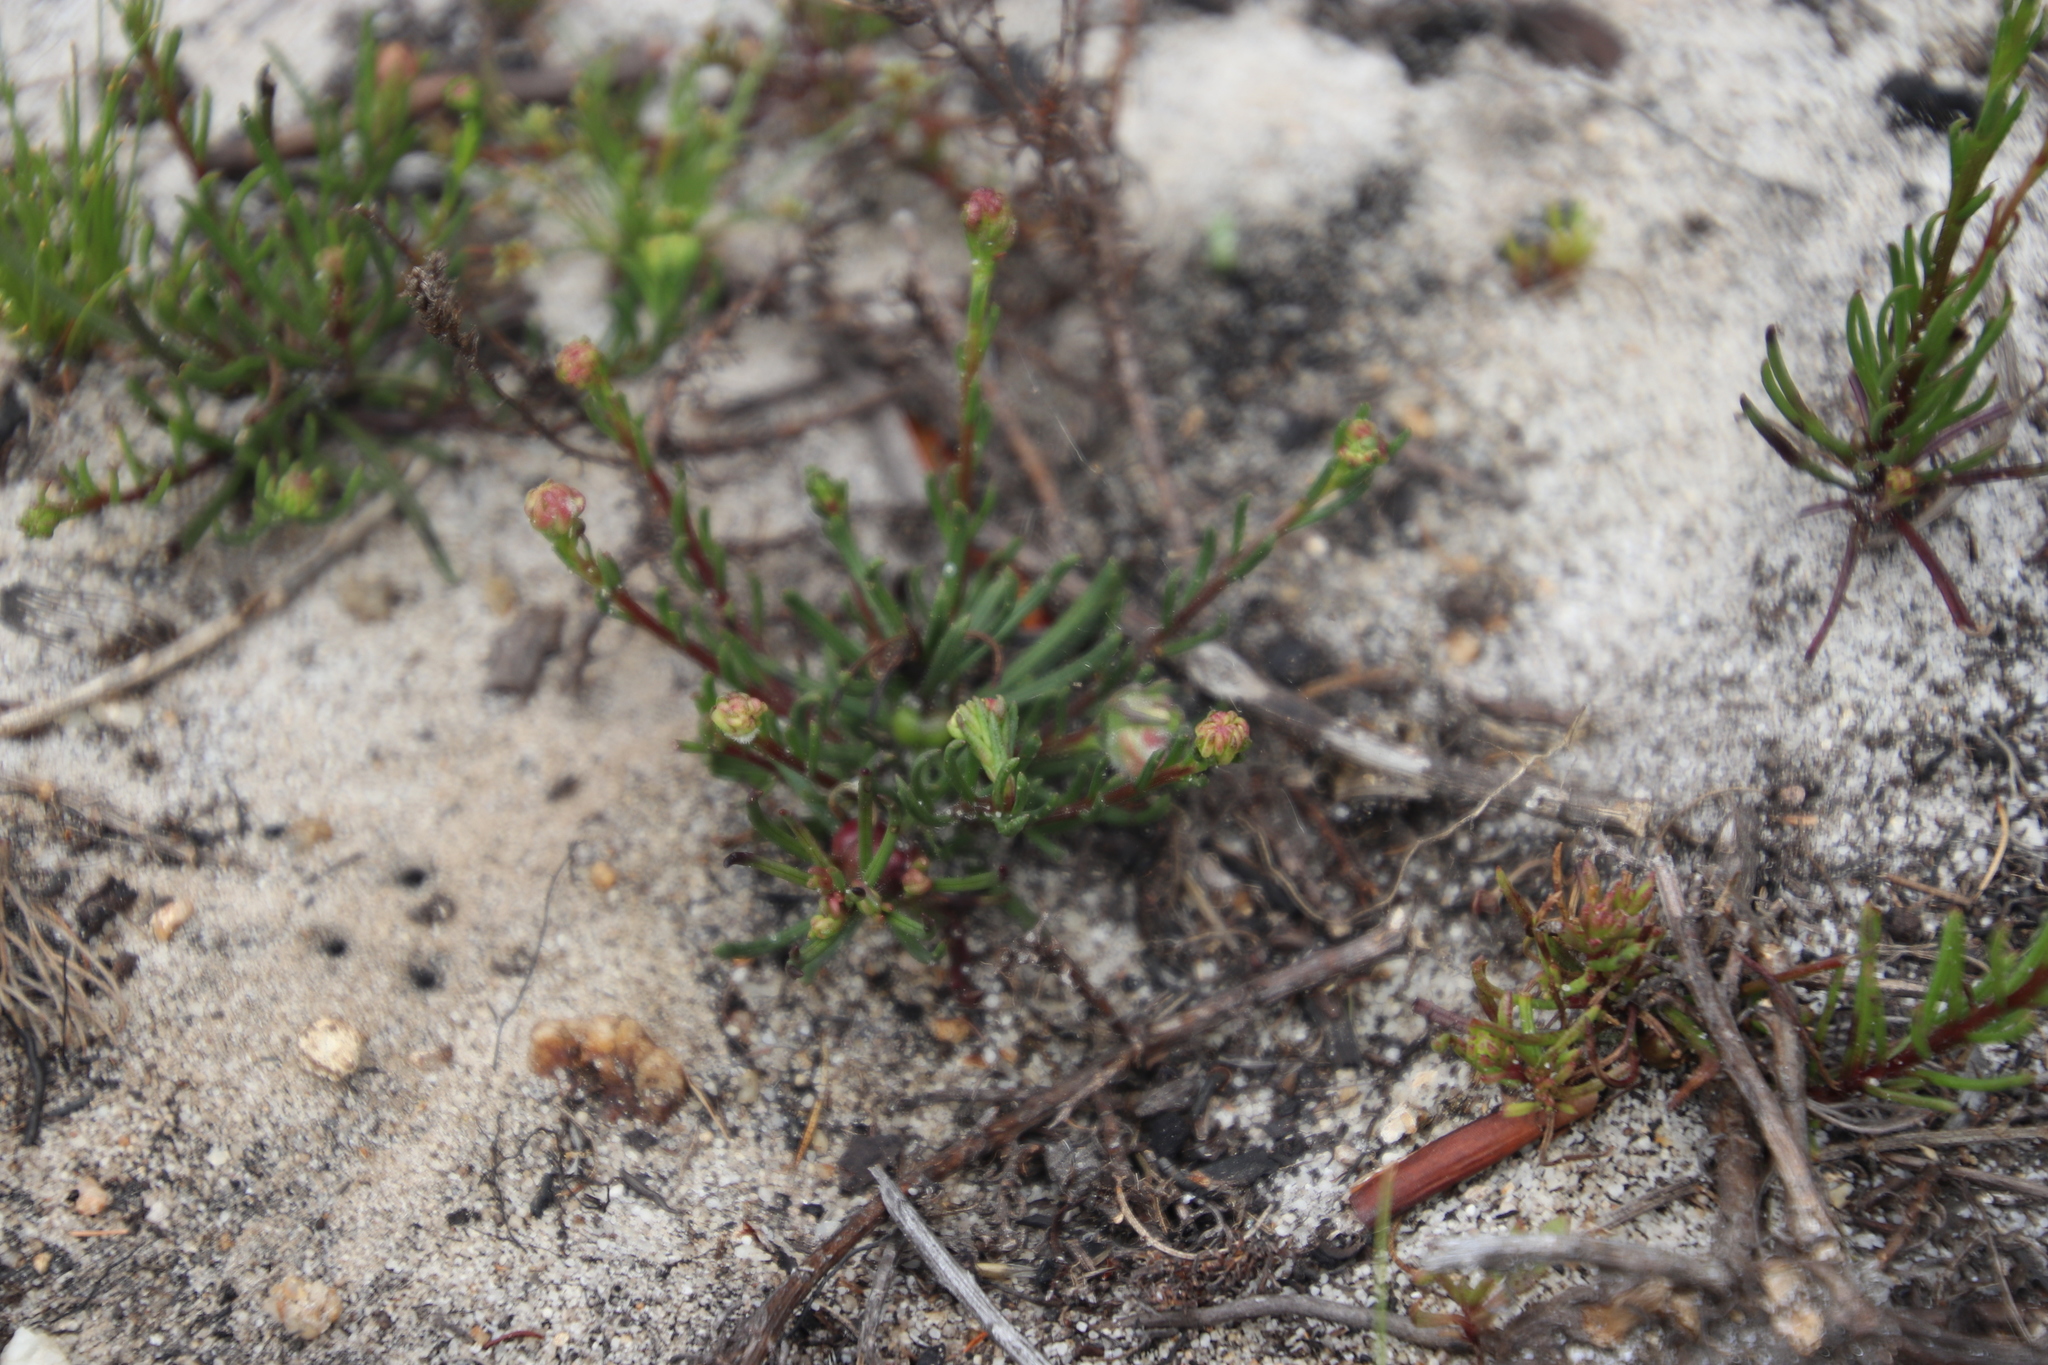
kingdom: Plantae
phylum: Tracheophyta
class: Magnoliopsida
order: Lamiales
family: Scrophulariaceae
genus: Pseudoselago
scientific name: Pseudoselago spuria
